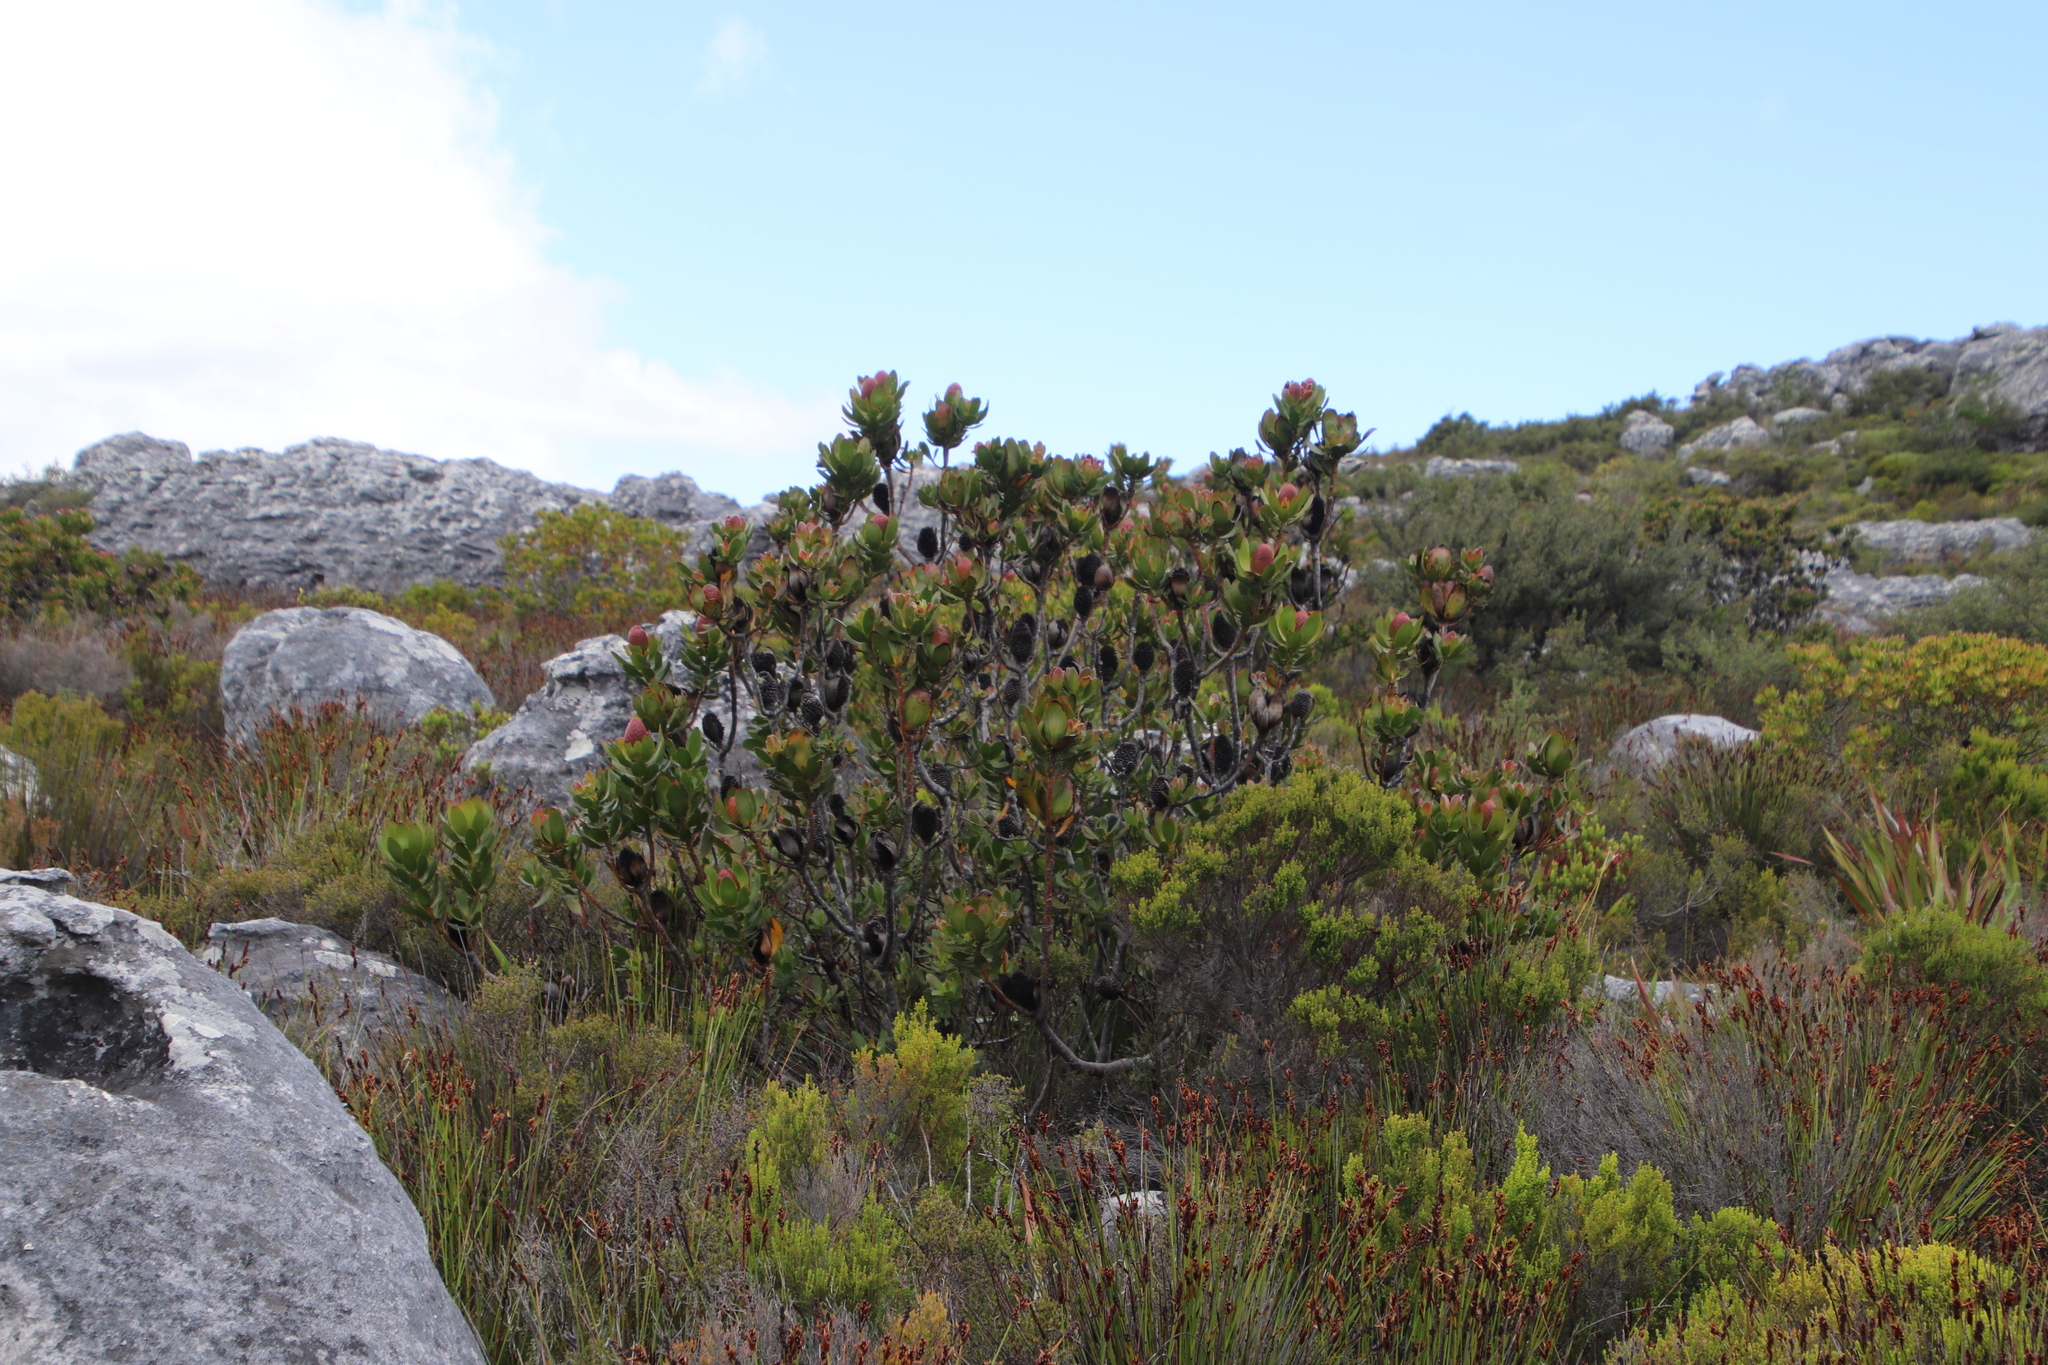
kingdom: Plantae
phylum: Tracheophyta
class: Magnoliopsida
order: Proteales
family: Proteaceae
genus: Leucadendron
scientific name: Leucadendron strobilinum
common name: Mountain rose
